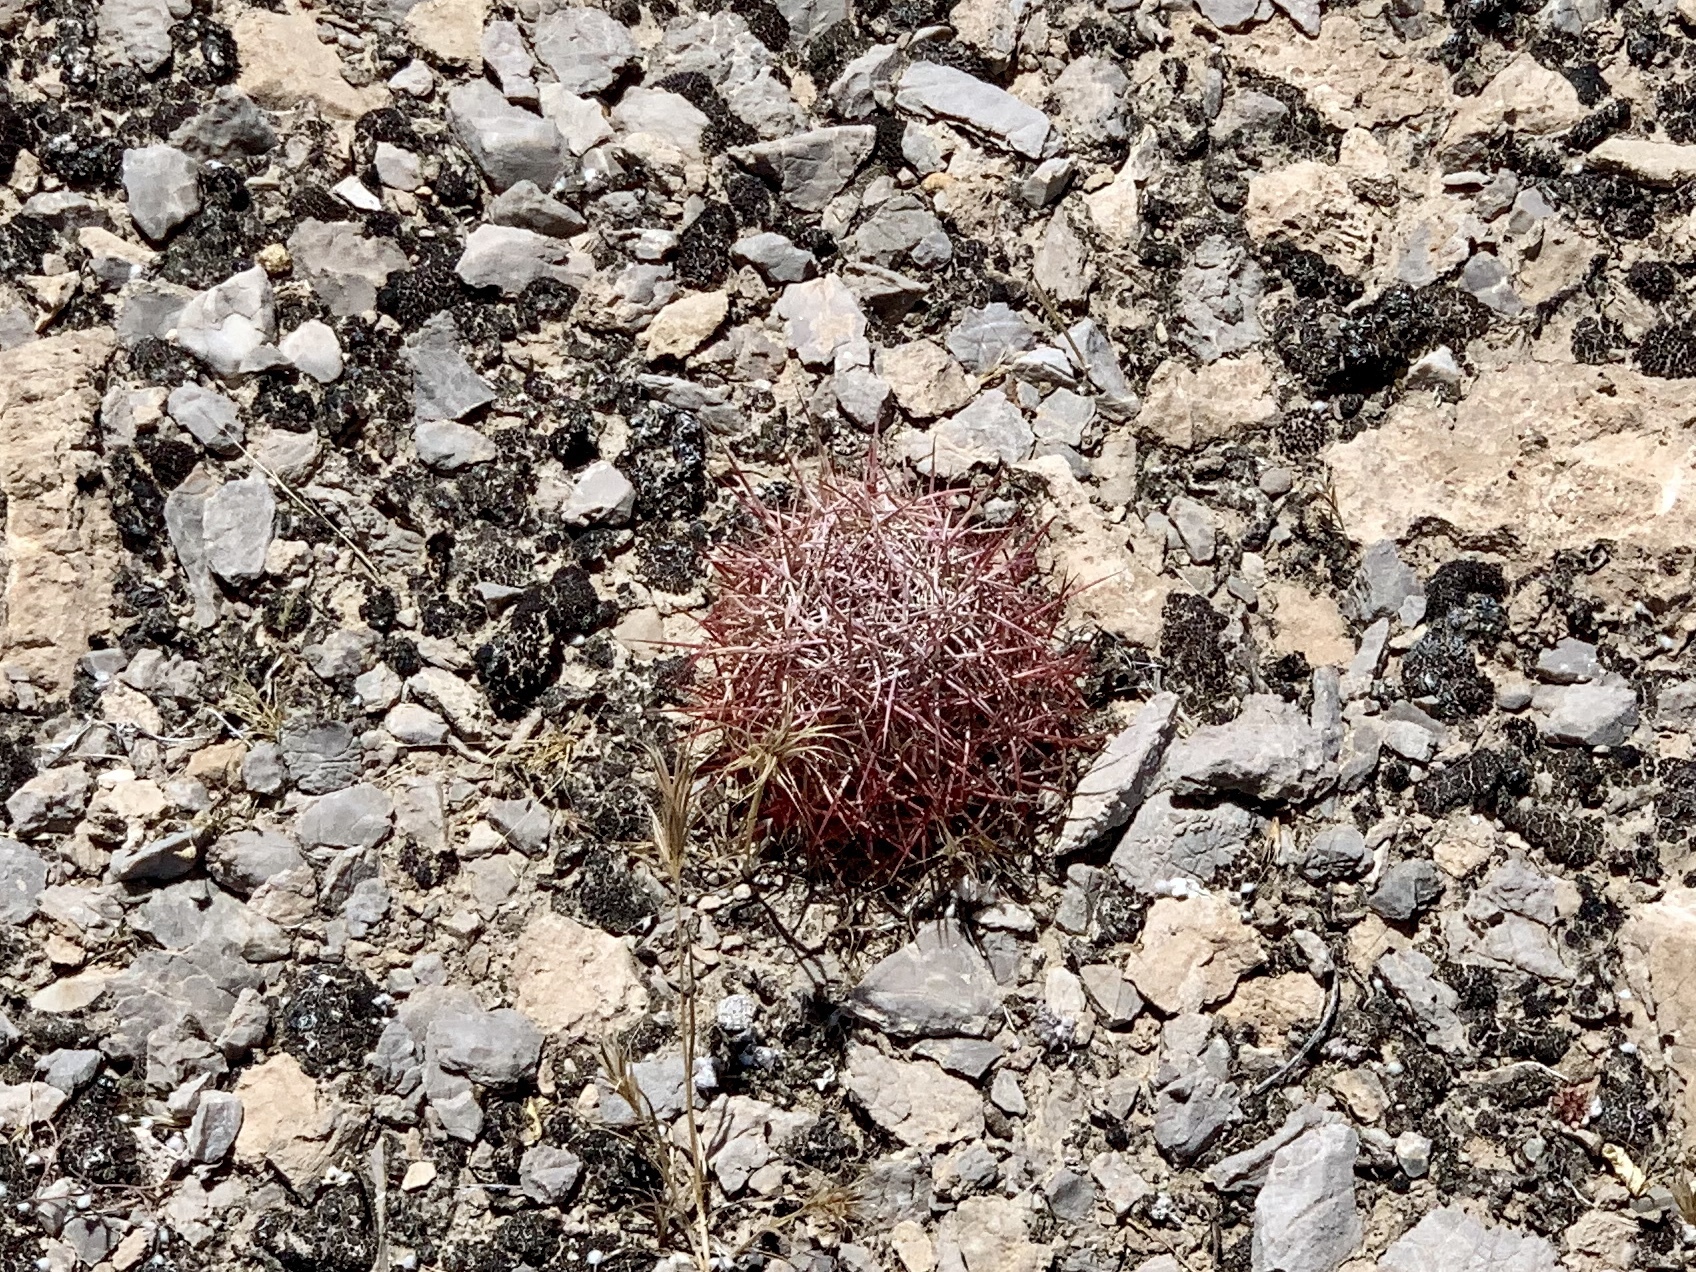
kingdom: Plantae
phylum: Tracheophyta
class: Magnoliopsida
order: Caryophyllales
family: Cactaceae
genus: Sclerocactus
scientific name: Sclerocactus johnsonii
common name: Eight-spine fishhook cactus
